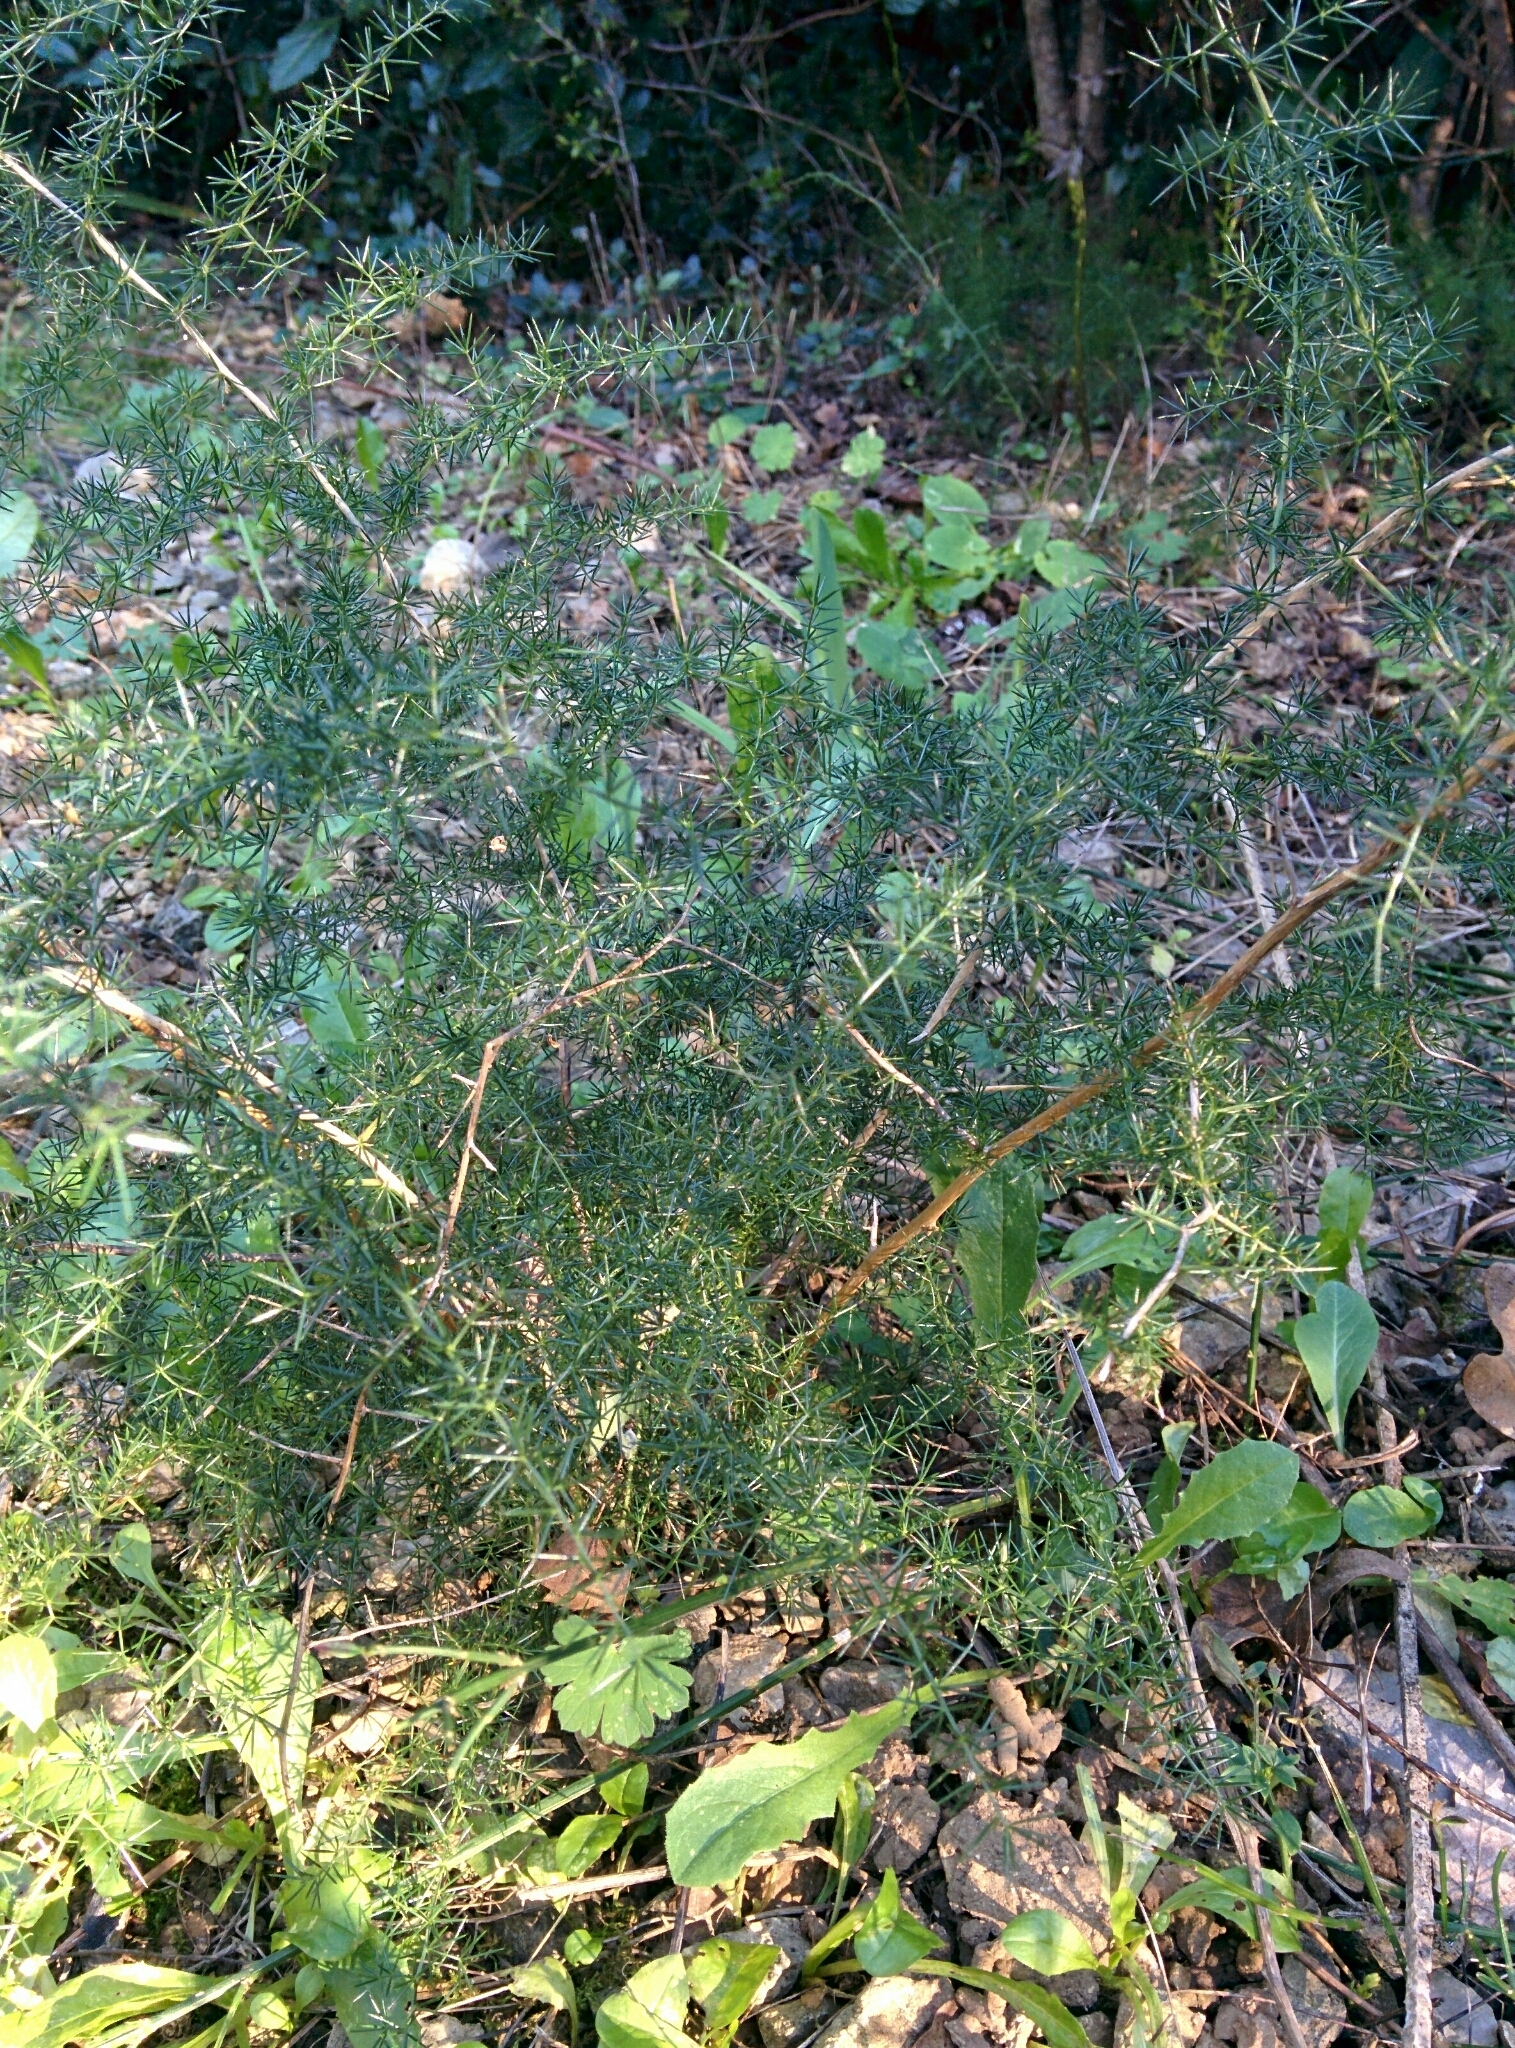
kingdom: Plantae
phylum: Tracheophyta
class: Liliopsida
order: Asparagales
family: Asparagaceae
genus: Asparagus
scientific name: Asparagus acutifolius
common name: Wild asparagus
